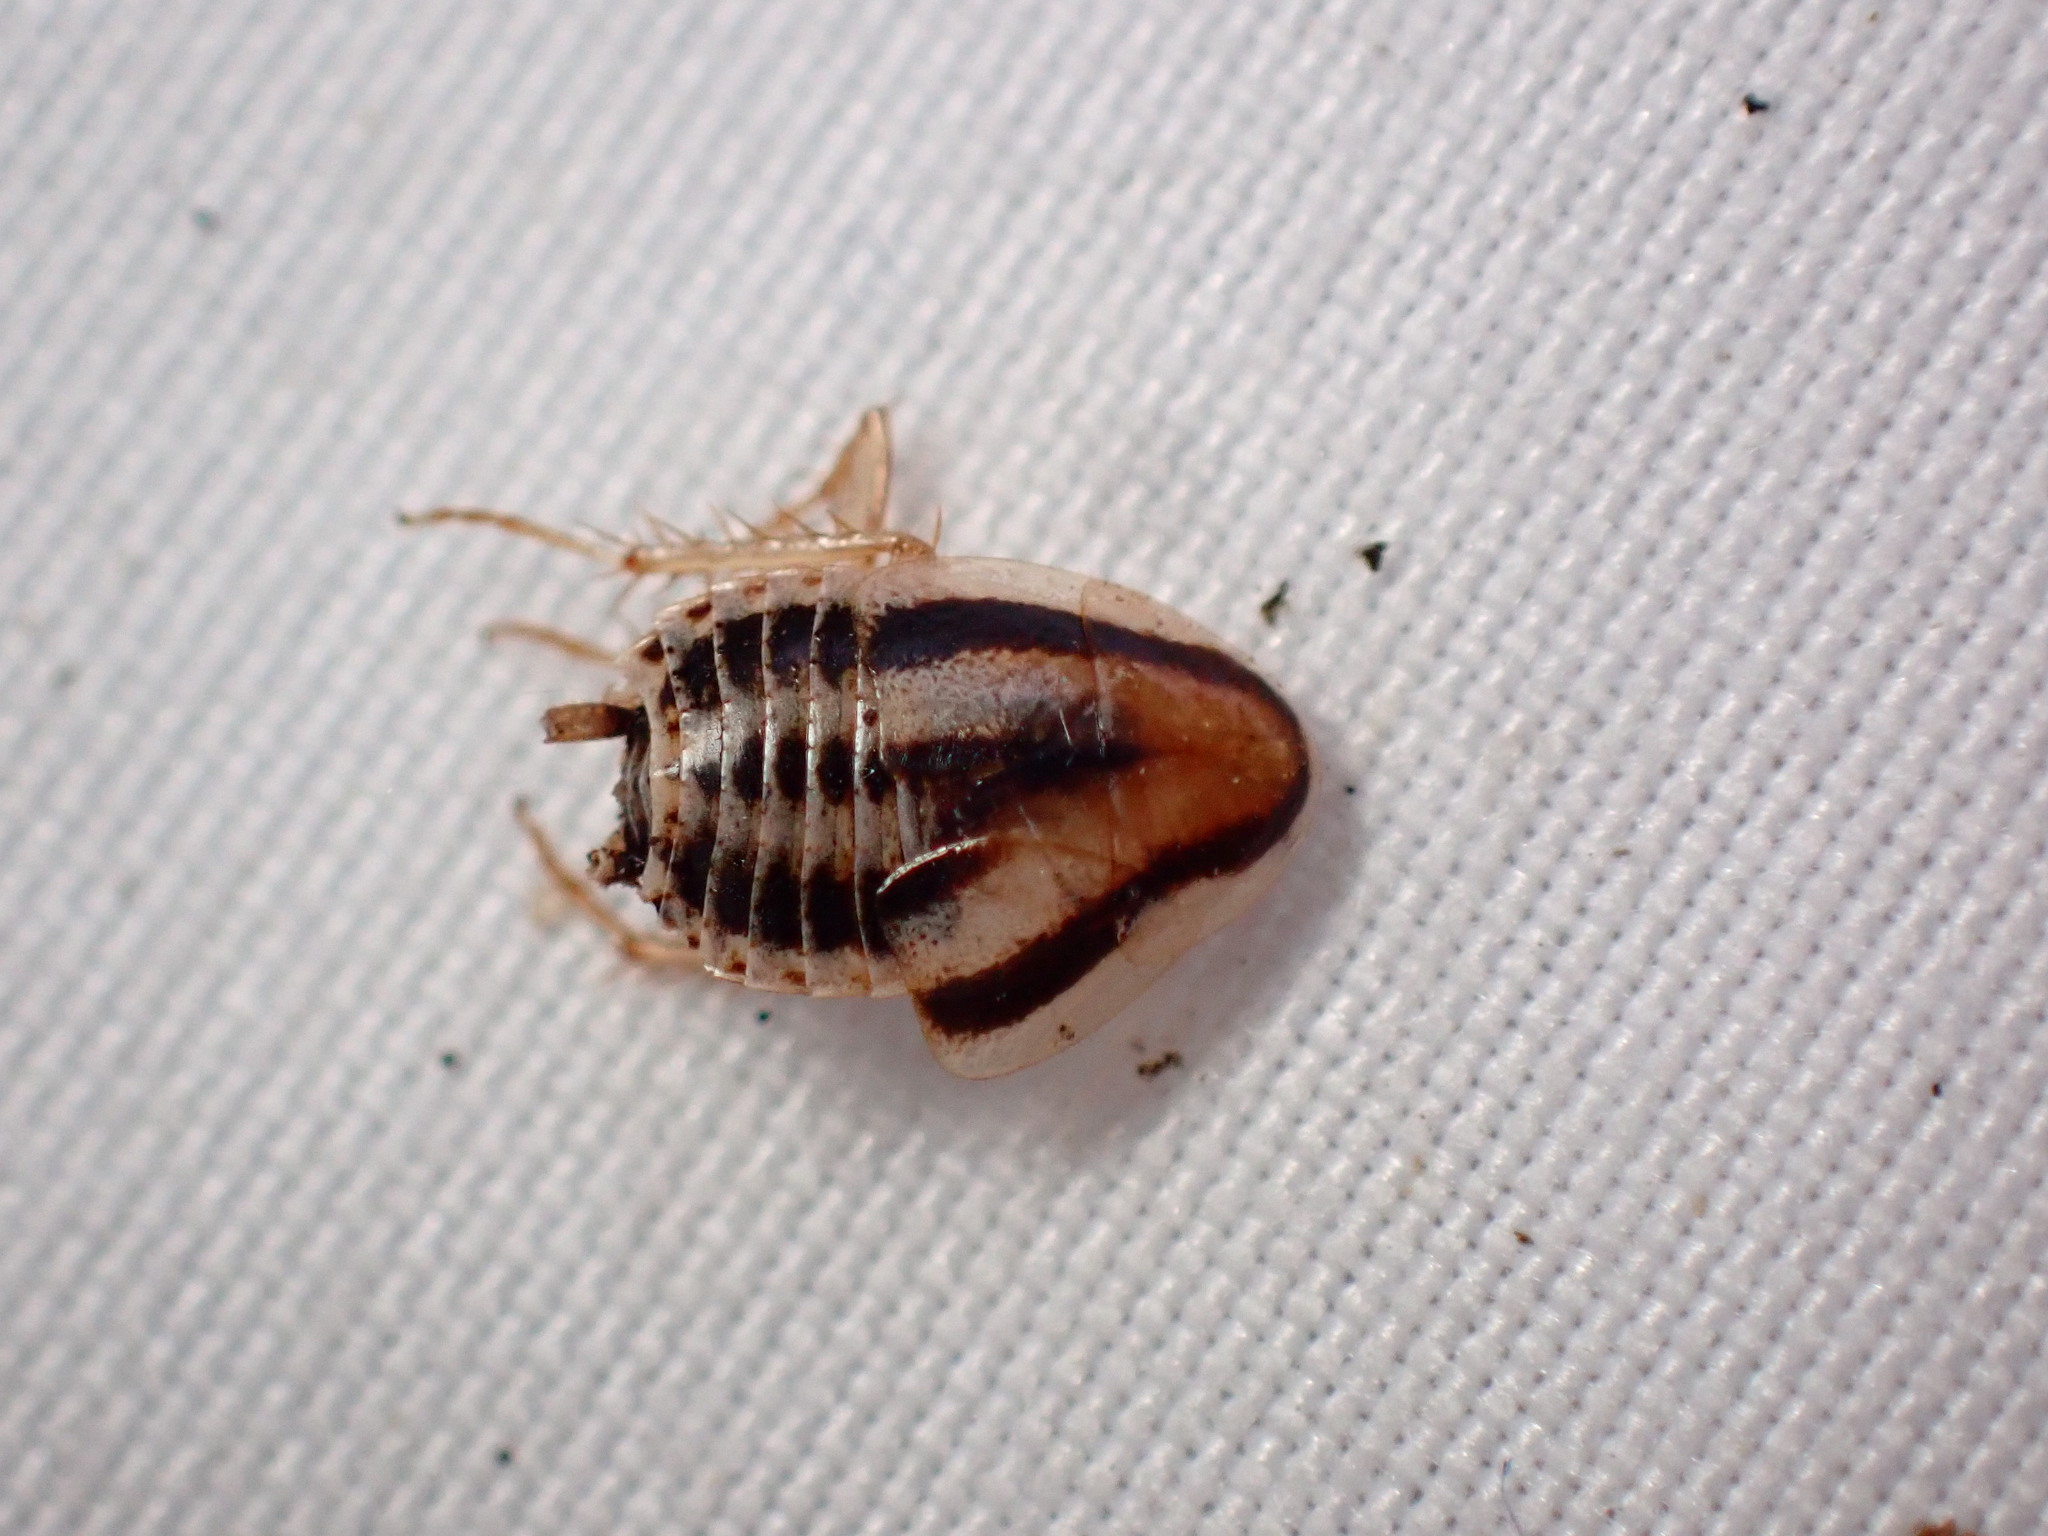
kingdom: Animalia
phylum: Arthropoda
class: Insecta
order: Blattodea
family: Ectobiidae
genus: Luridiblatta
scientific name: Luridiblatta trivittata
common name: Three-lined cockroach
